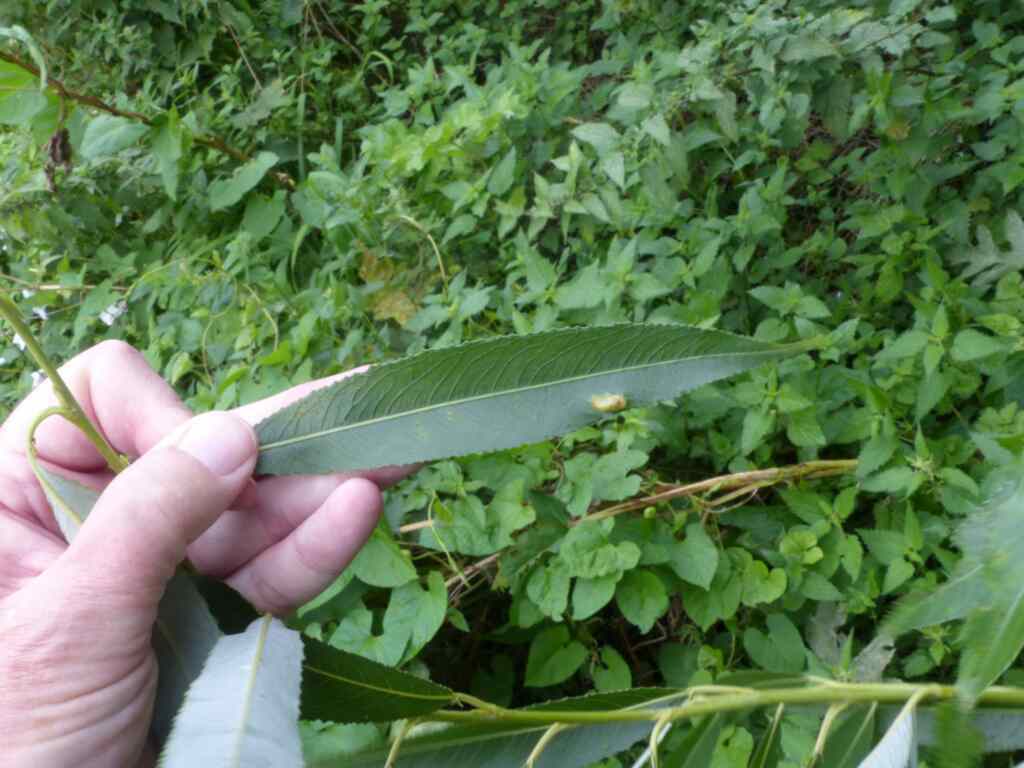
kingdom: Animalia
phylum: Arthropoda
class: Insecta
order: Hymenoptera
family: Tenthredinidae
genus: Pontania
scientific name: Pontania proxima
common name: Common sawfly
